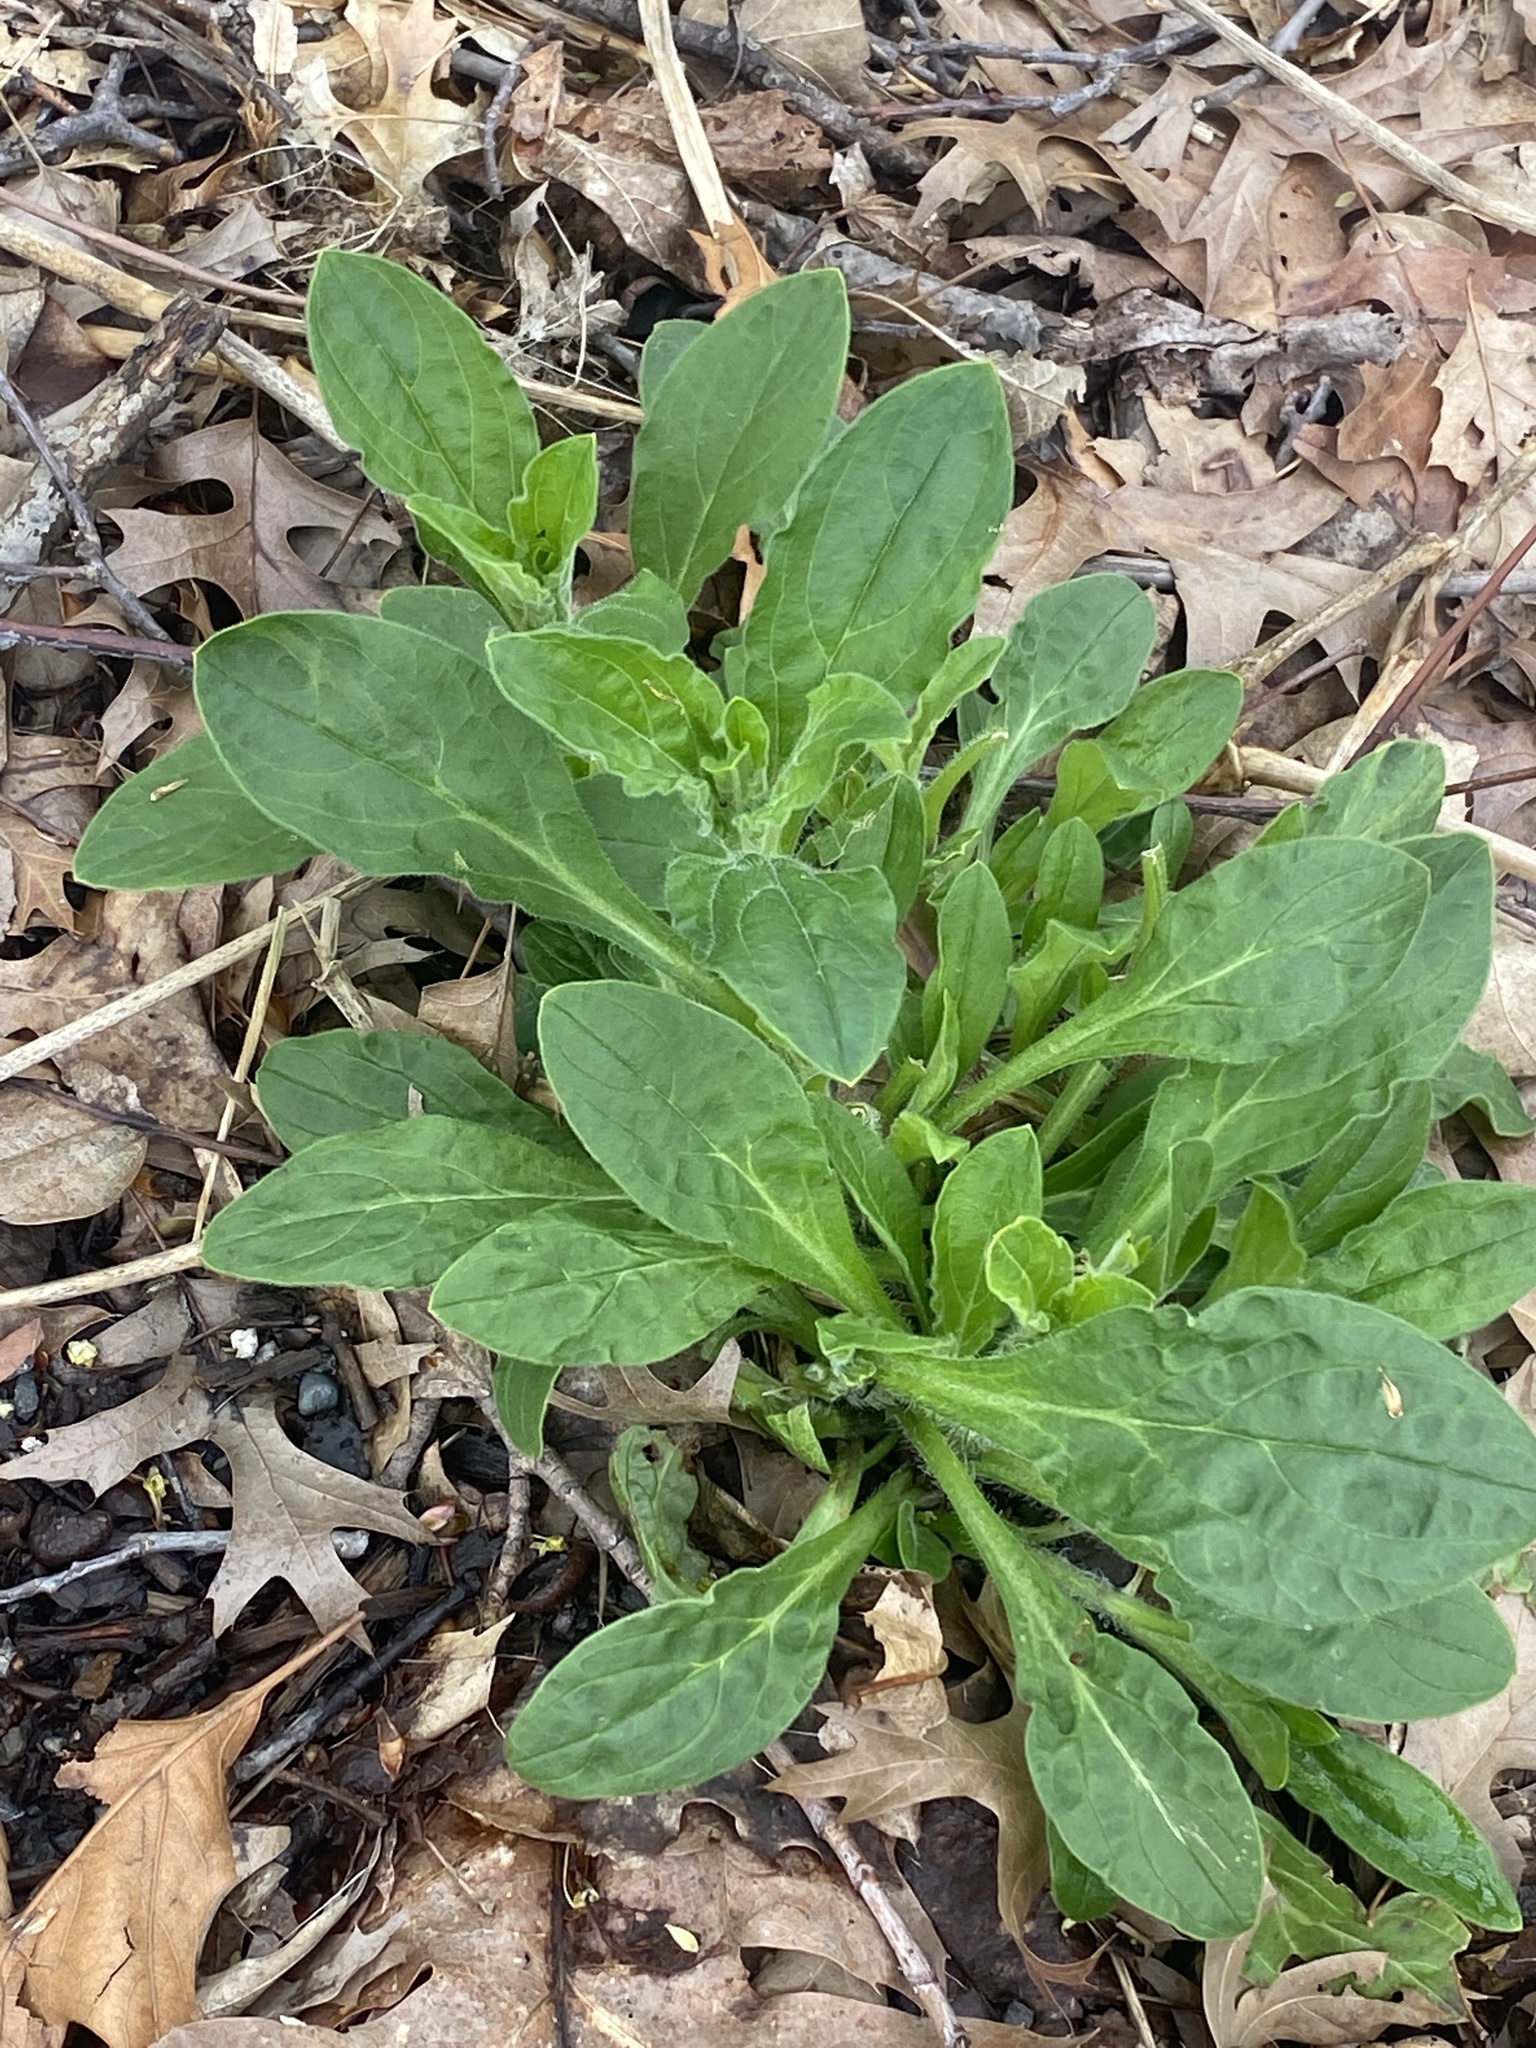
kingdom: Plantae
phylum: Tracheophyta
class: Magnoliopsida
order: Caryophyllales
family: Caryophyllaceae
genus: Silene
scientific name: Silene latifolia
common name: White campion
